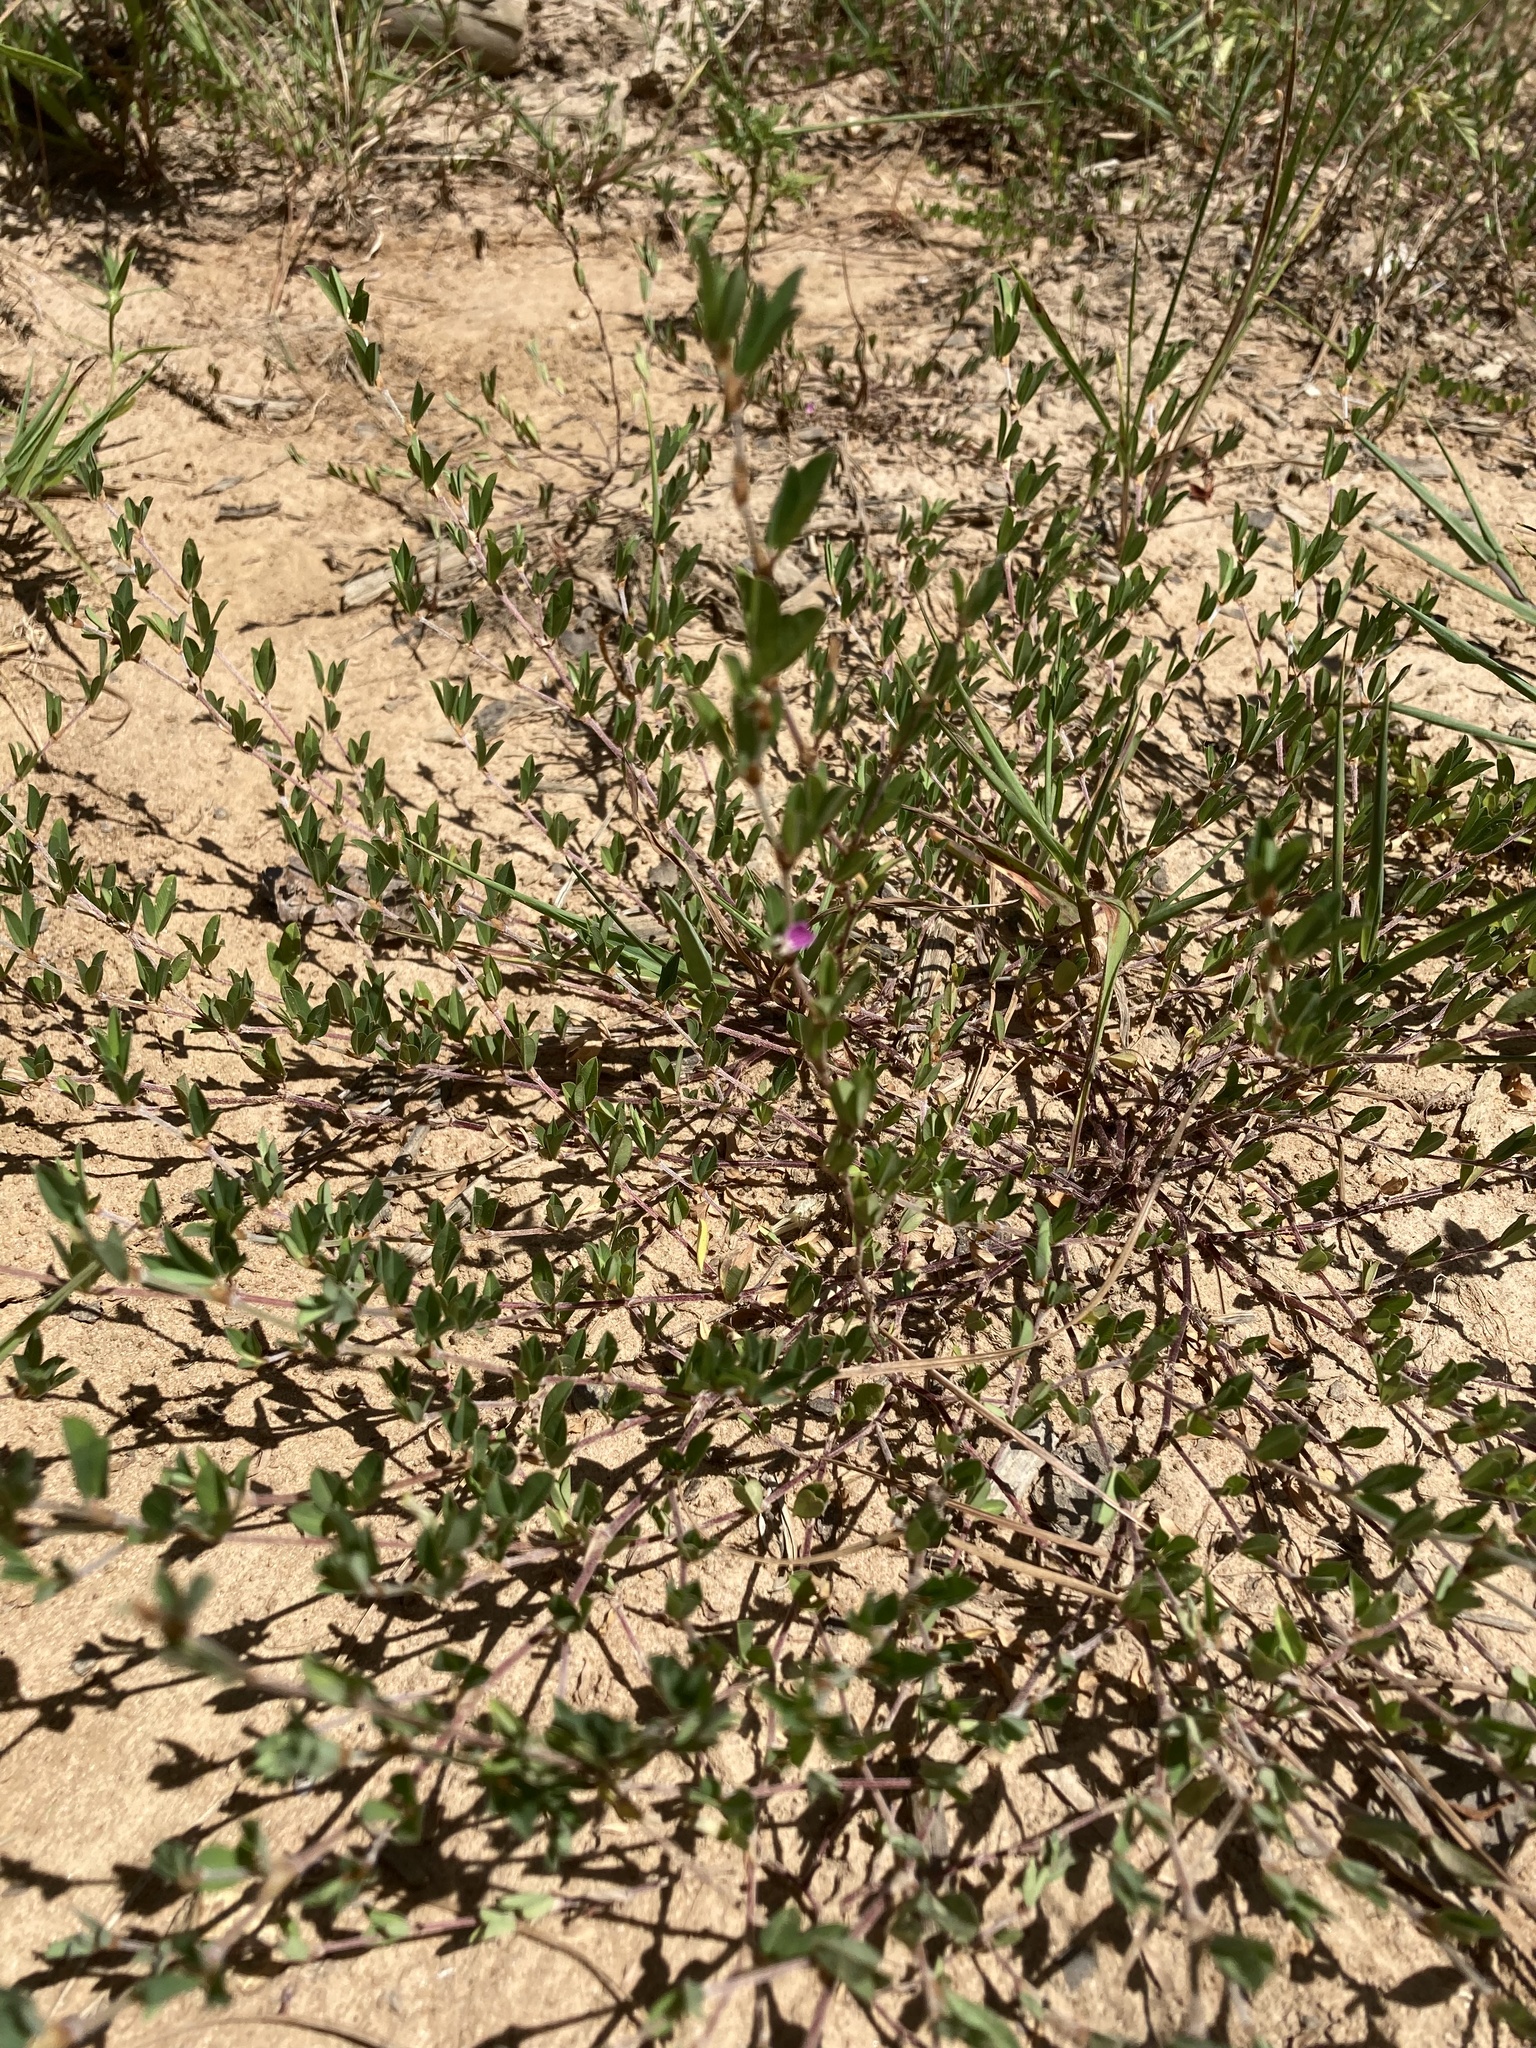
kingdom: Plantae
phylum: Tracheophyta
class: Magnoliopsida
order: Fabales
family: Fabaceae
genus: Kummerowia
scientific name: Kummerowia striata
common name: Japanese clover
